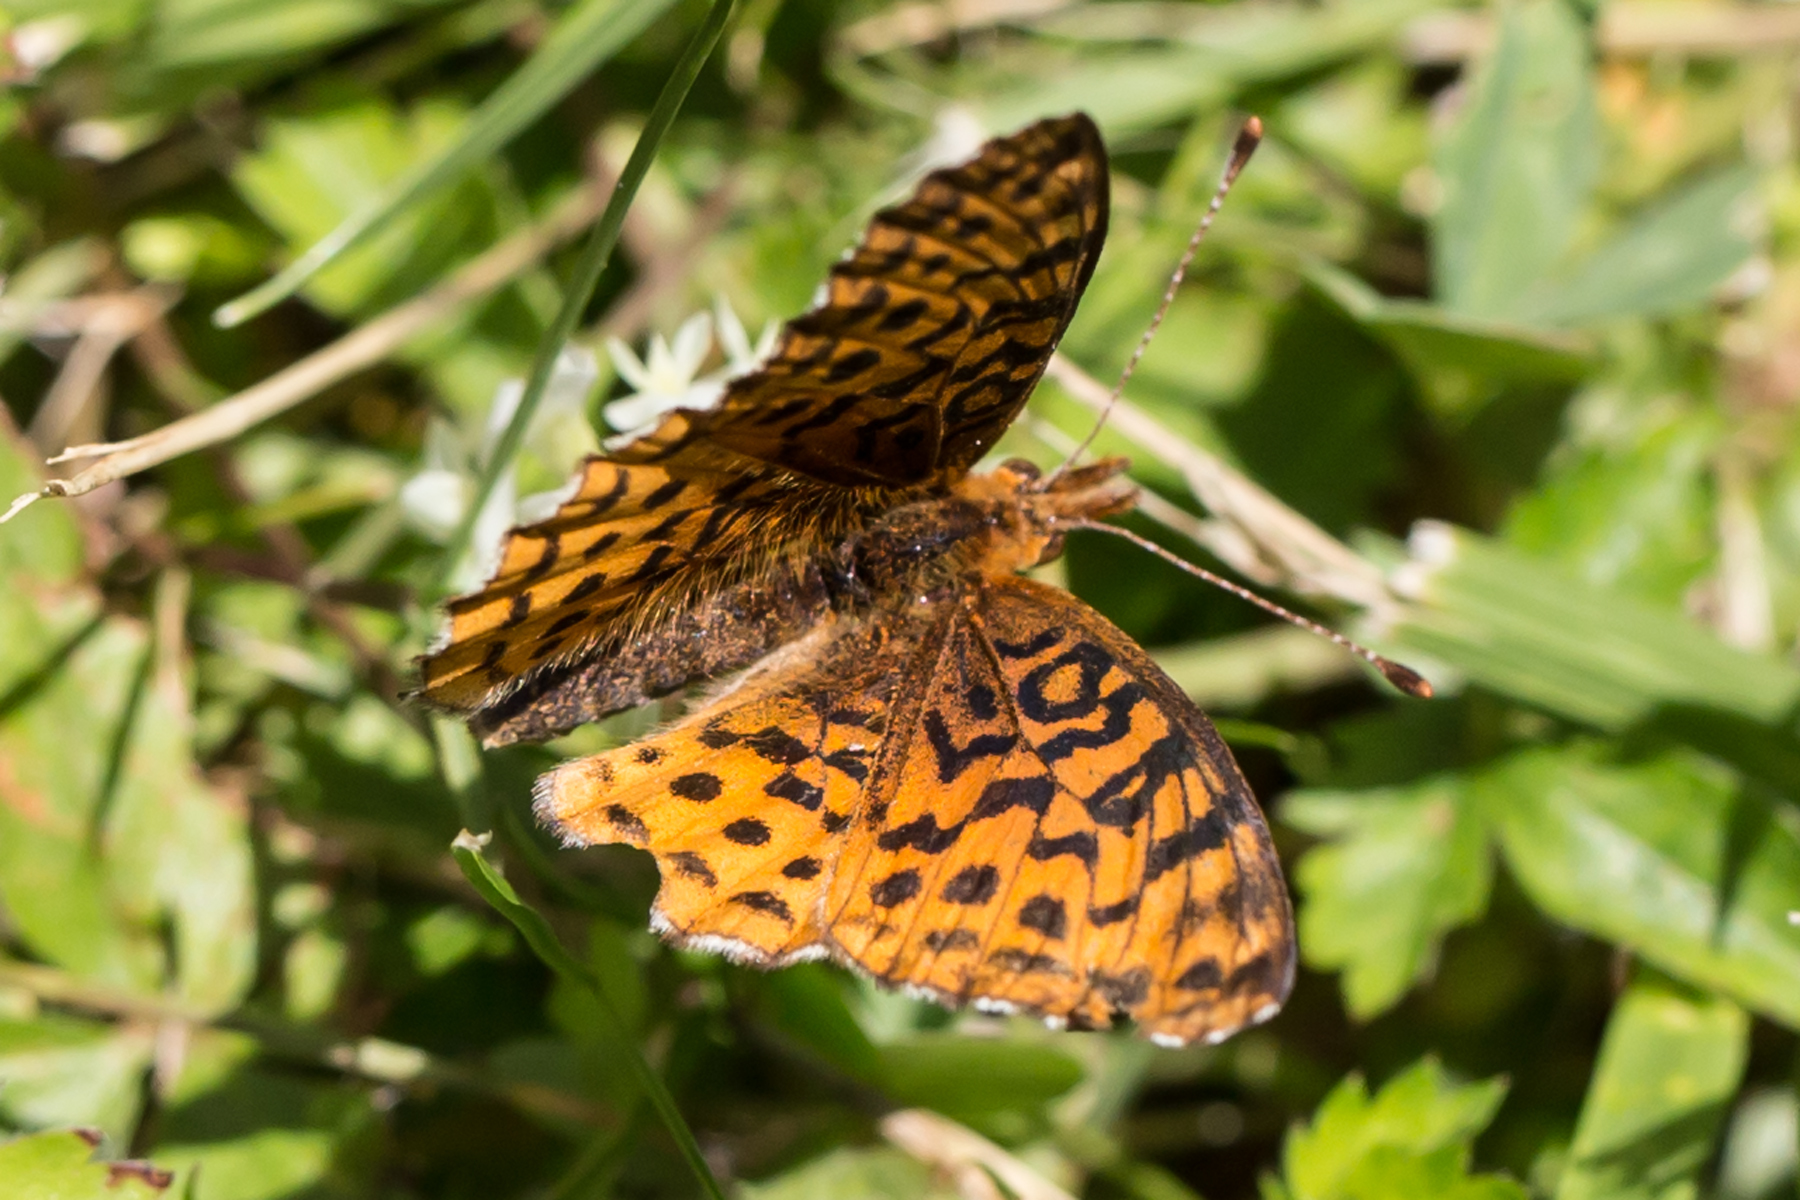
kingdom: Animalia
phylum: Arthropoda
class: Insecta
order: Lepidoptera
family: Nymphalidae
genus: Clossiana
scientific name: Clossiana toddi
